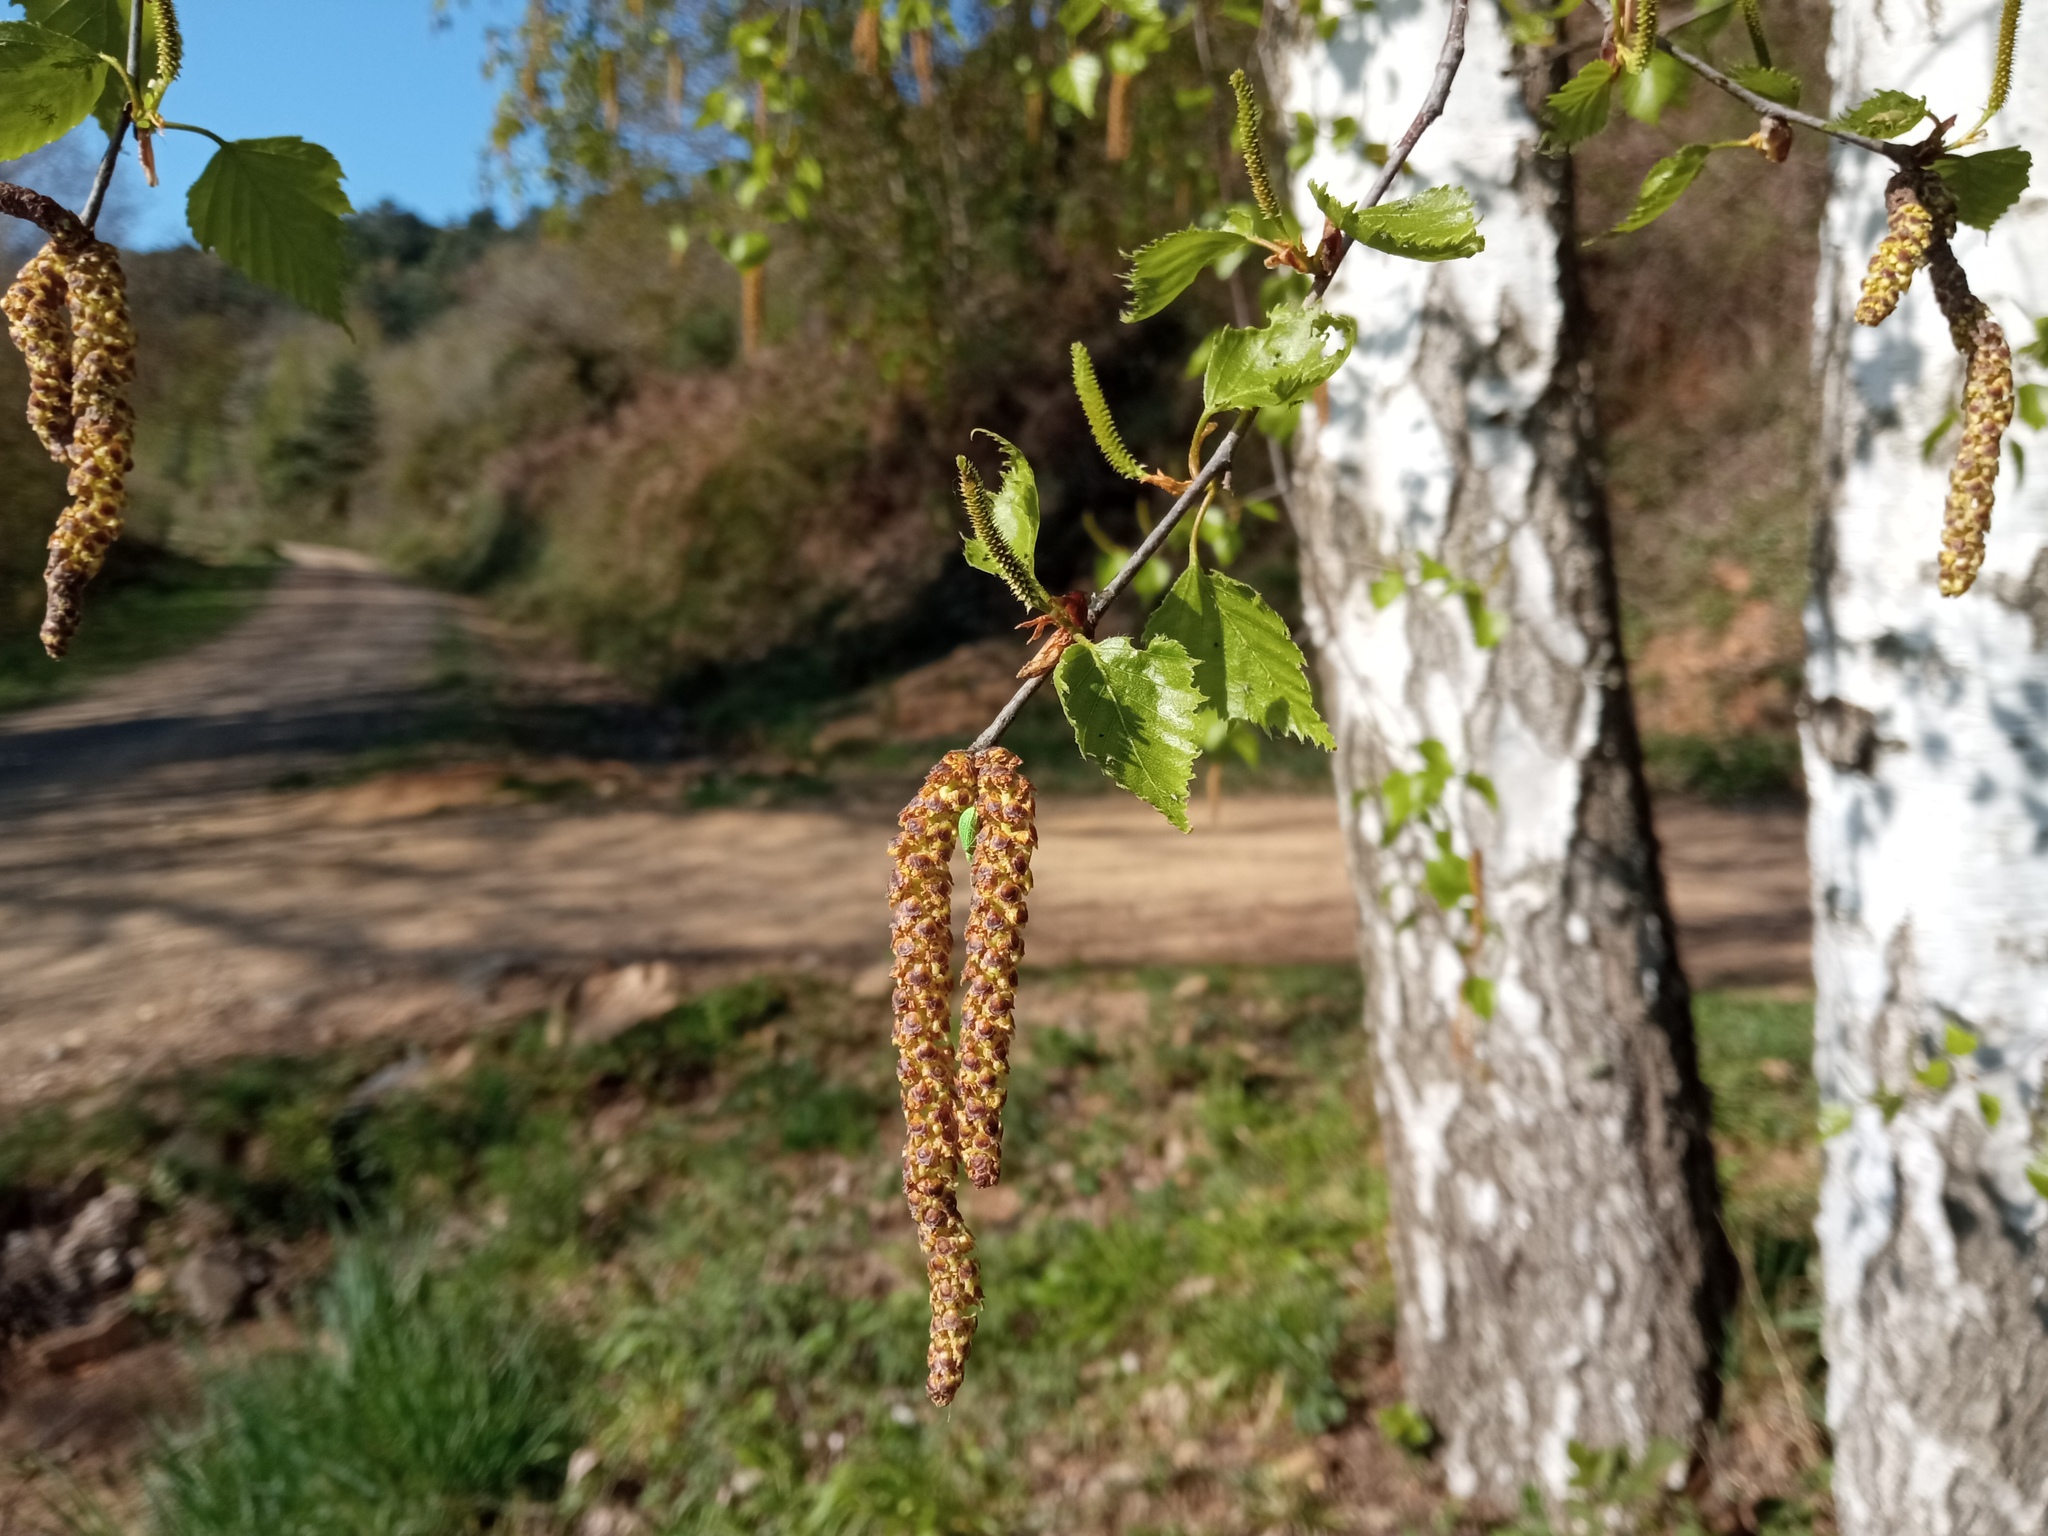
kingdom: Plantae
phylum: Tracheophyta
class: Magnoliopsida
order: Fagales
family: Betulaceae
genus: Betula
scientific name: Betula pendula
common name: Silver birch
